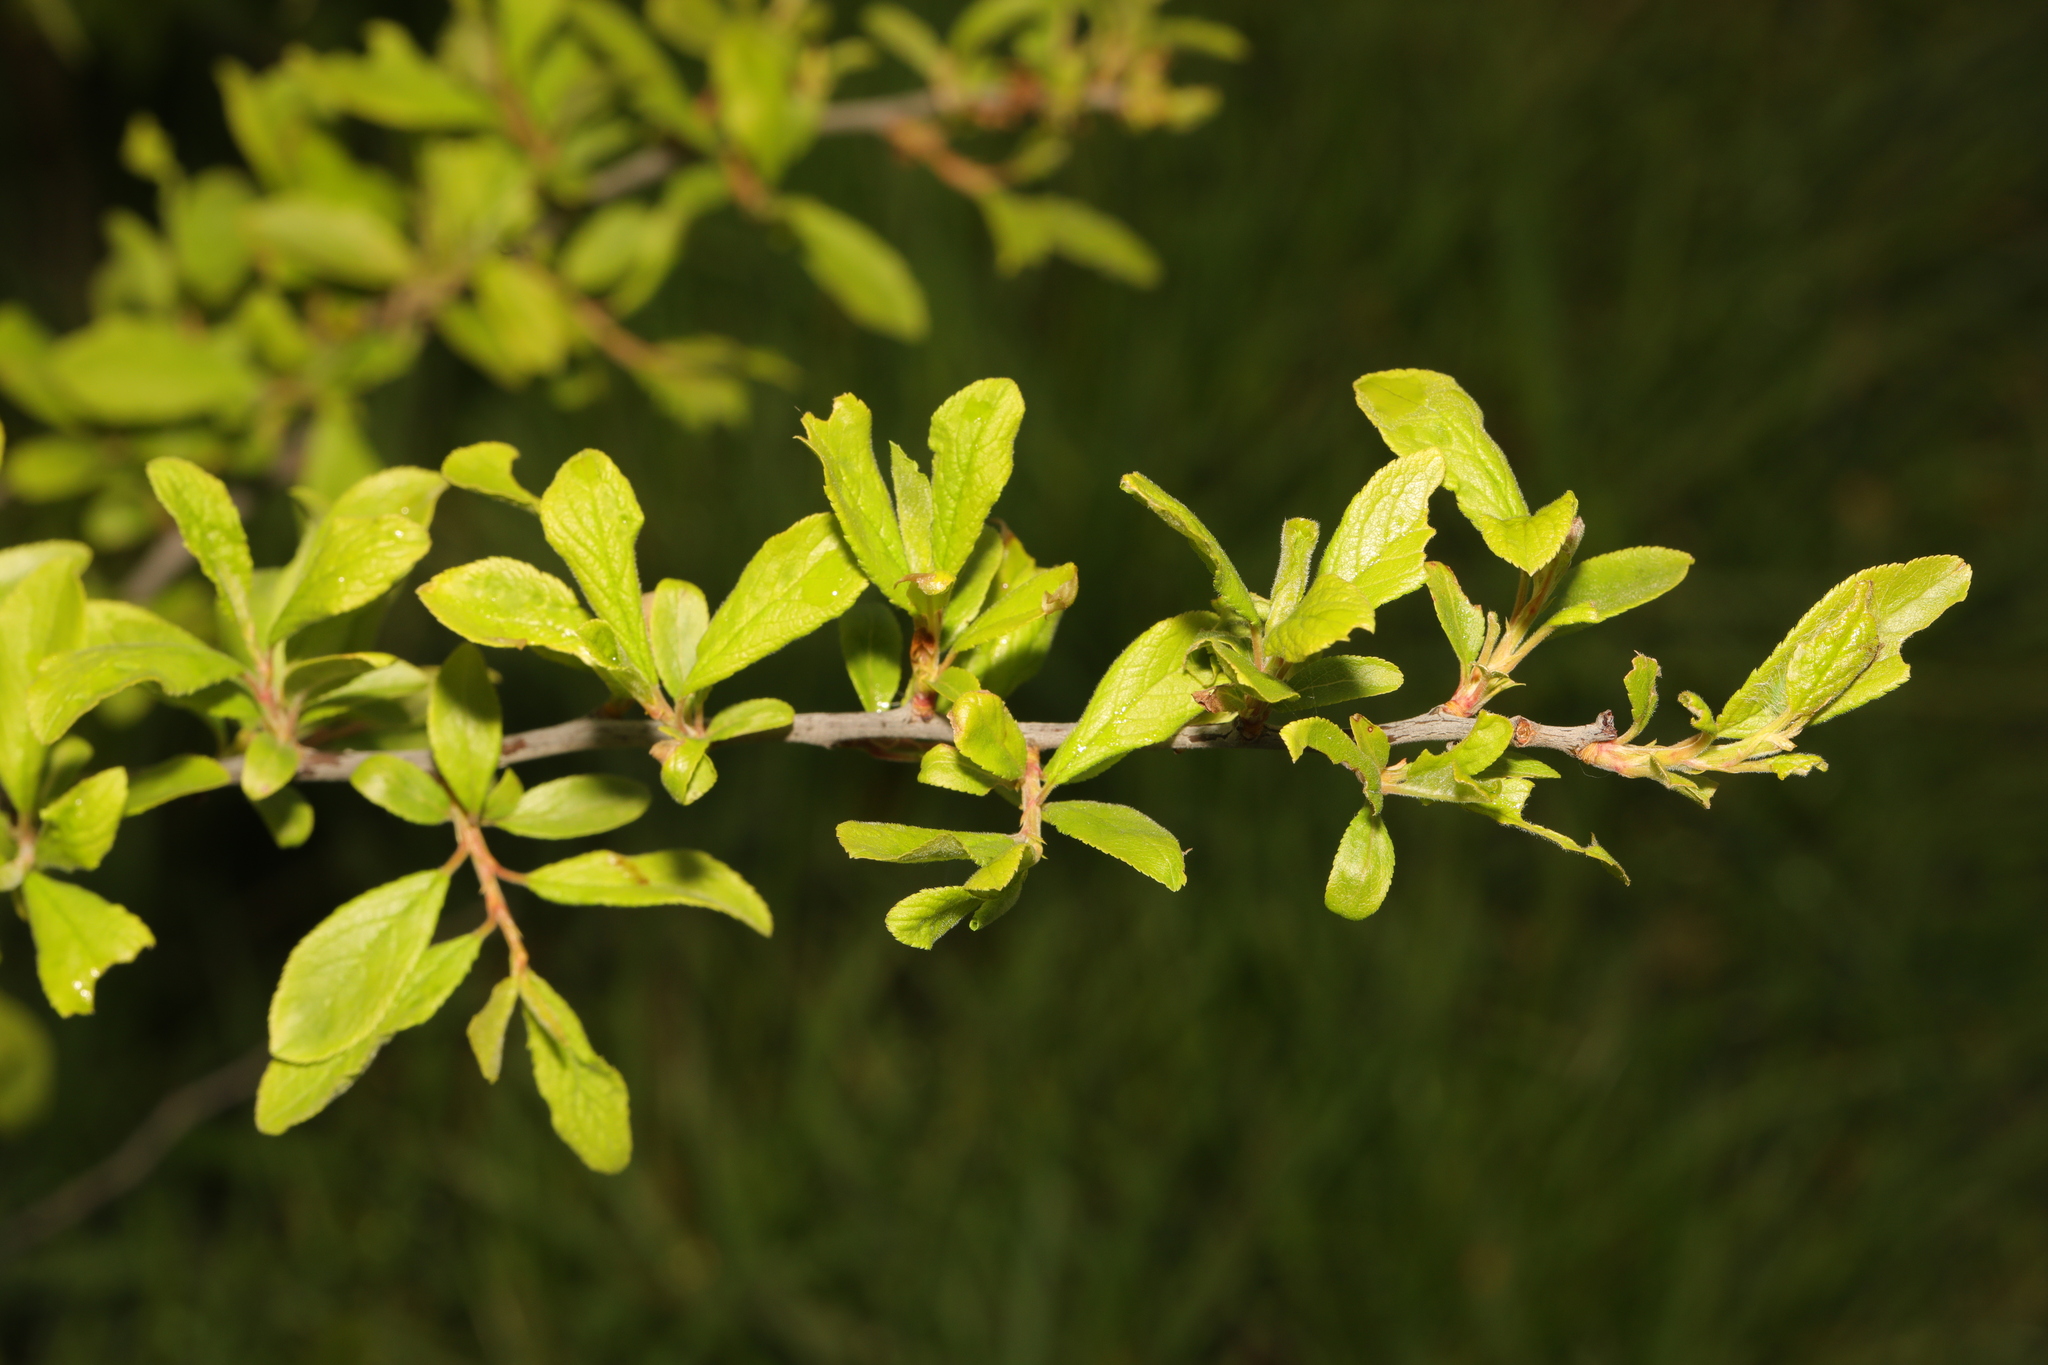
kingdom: Plantae
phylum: Tracheophyta
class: Magnoliopsida
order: Rosales
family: Rosaceae
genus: Prunus
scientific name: Prunus spinosa
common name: Blackthorn
